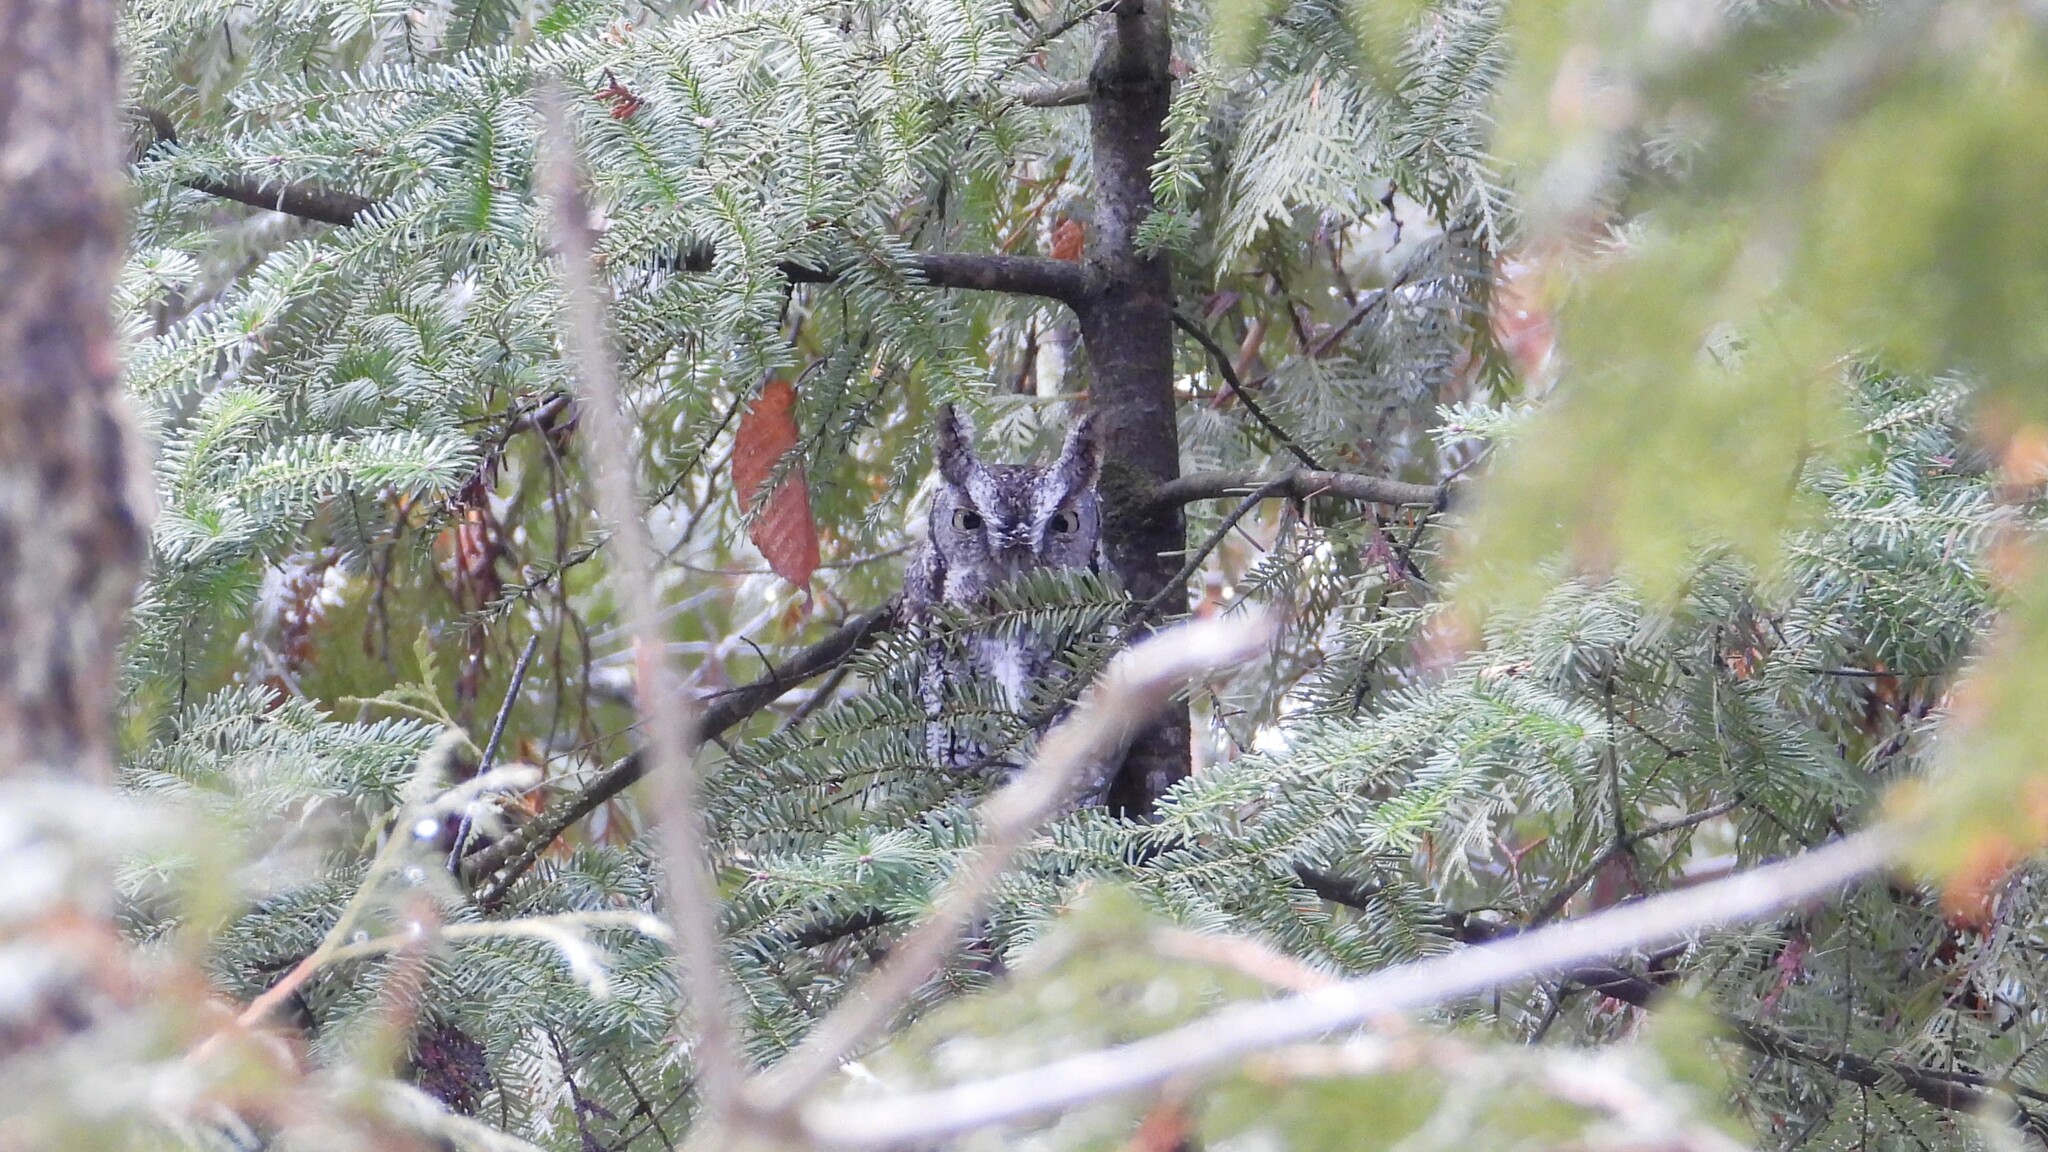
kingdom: Animalia
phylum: Chordata
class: Aves
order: Strigiformes
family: Strigidae
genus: Megascops
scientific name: Megascops asio
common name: Eastern screech-owl
